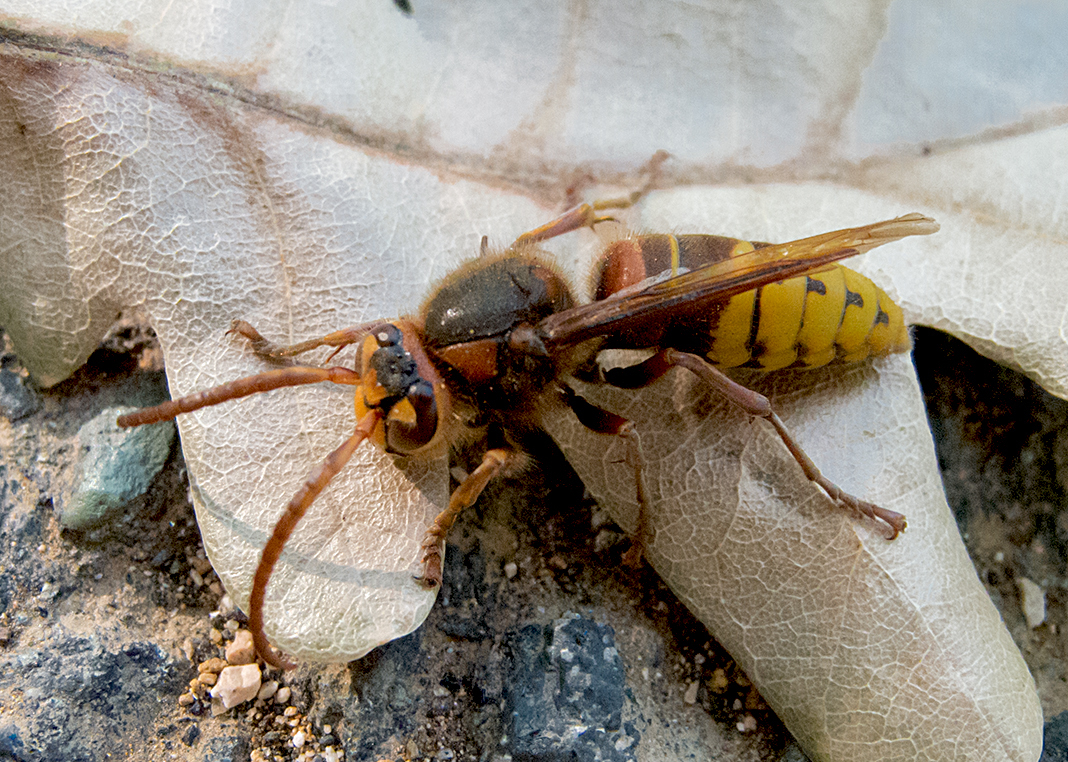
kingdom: Animalia
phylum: Arthropoda
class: Insecta
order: Hymenoptera
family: Vespidae
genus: Vespa
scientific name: Vespa crabro
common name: Hornet
